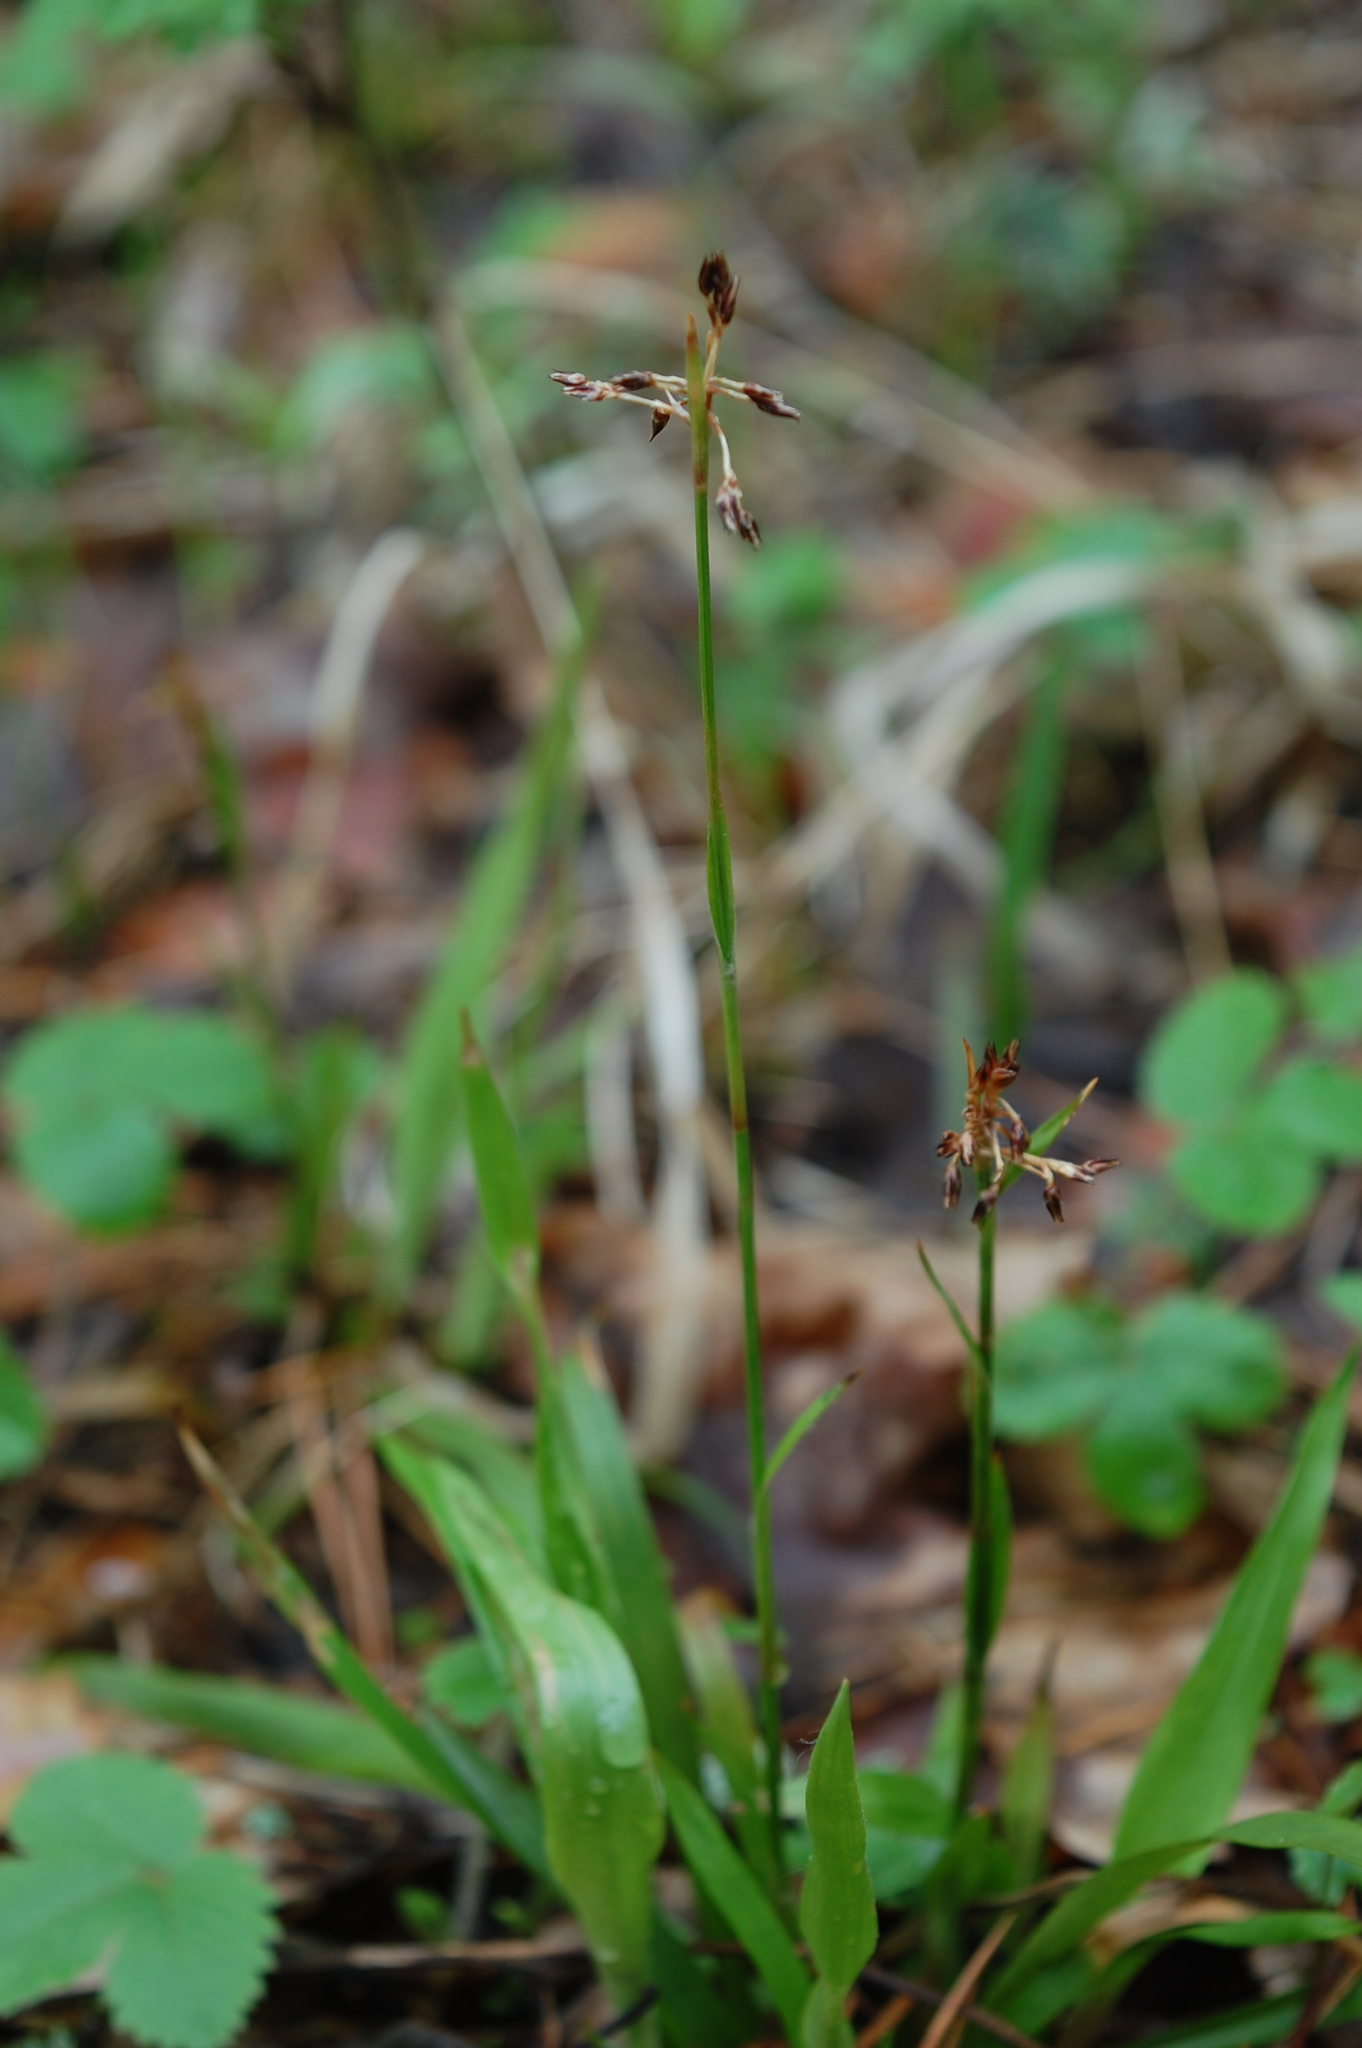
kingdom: Plantae
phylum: Tracheophyta
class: Liliopsida
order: Poales
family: Juncaceae
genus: Luzula
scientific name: Luzula pilosa
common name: Hairy wood-rush
